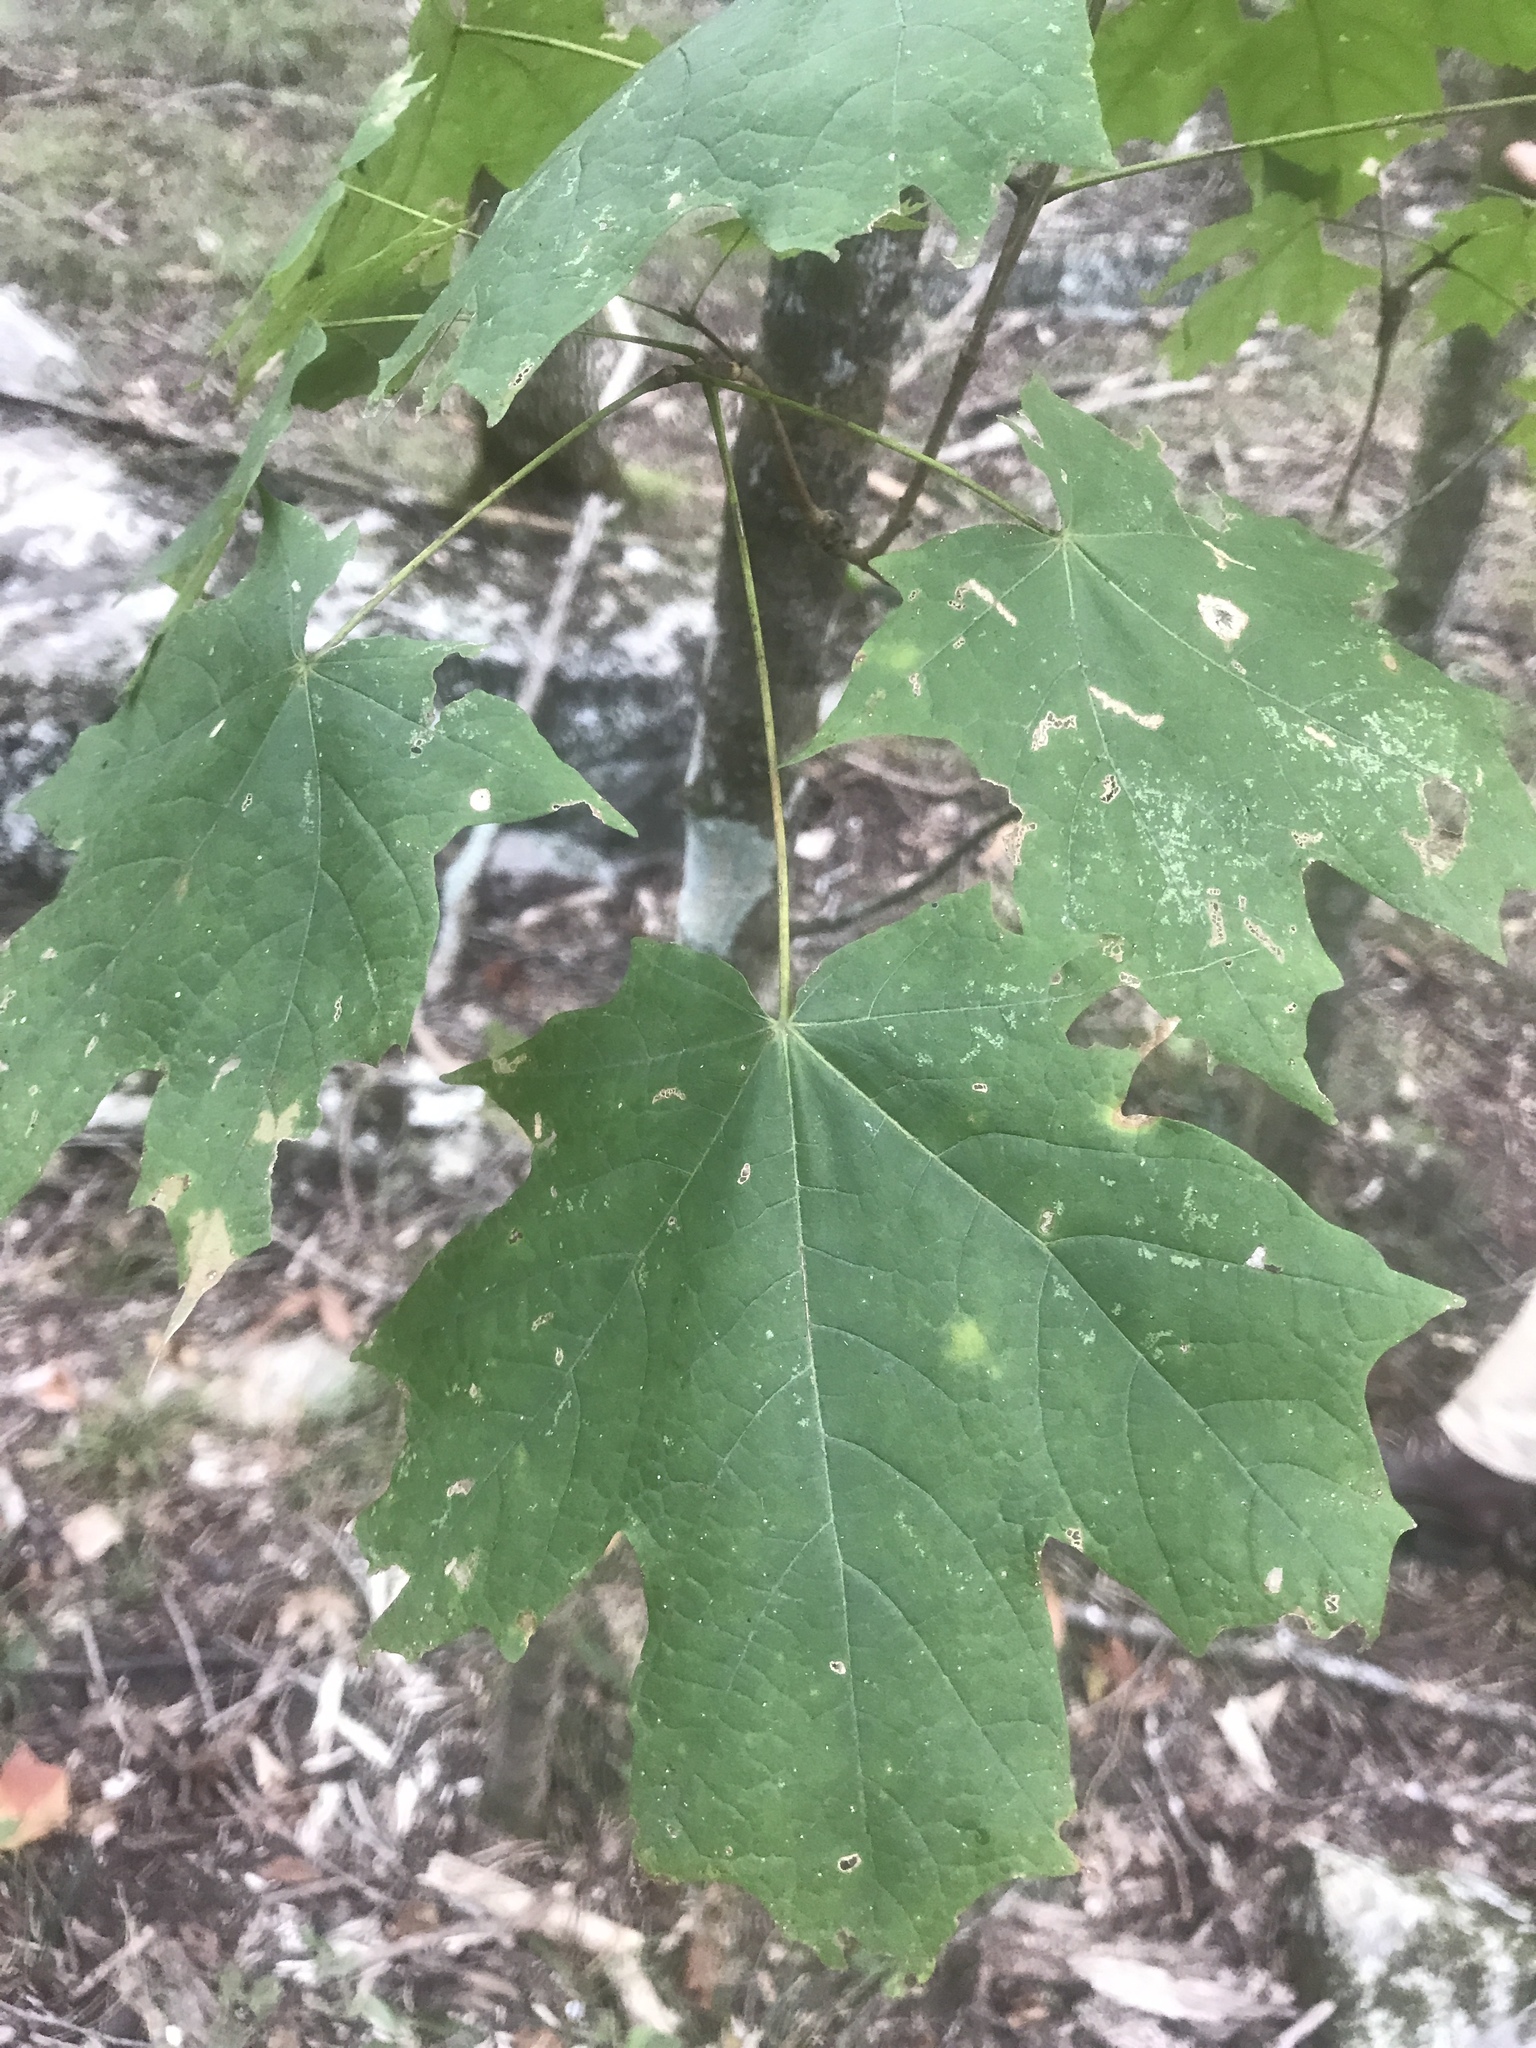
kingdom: Plantae
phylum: Tracheophyta
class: Magnoliopsida
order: Sapindales
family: Sapindaceae
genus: Acer
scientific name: Acer saccharum
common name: Sugar maple
